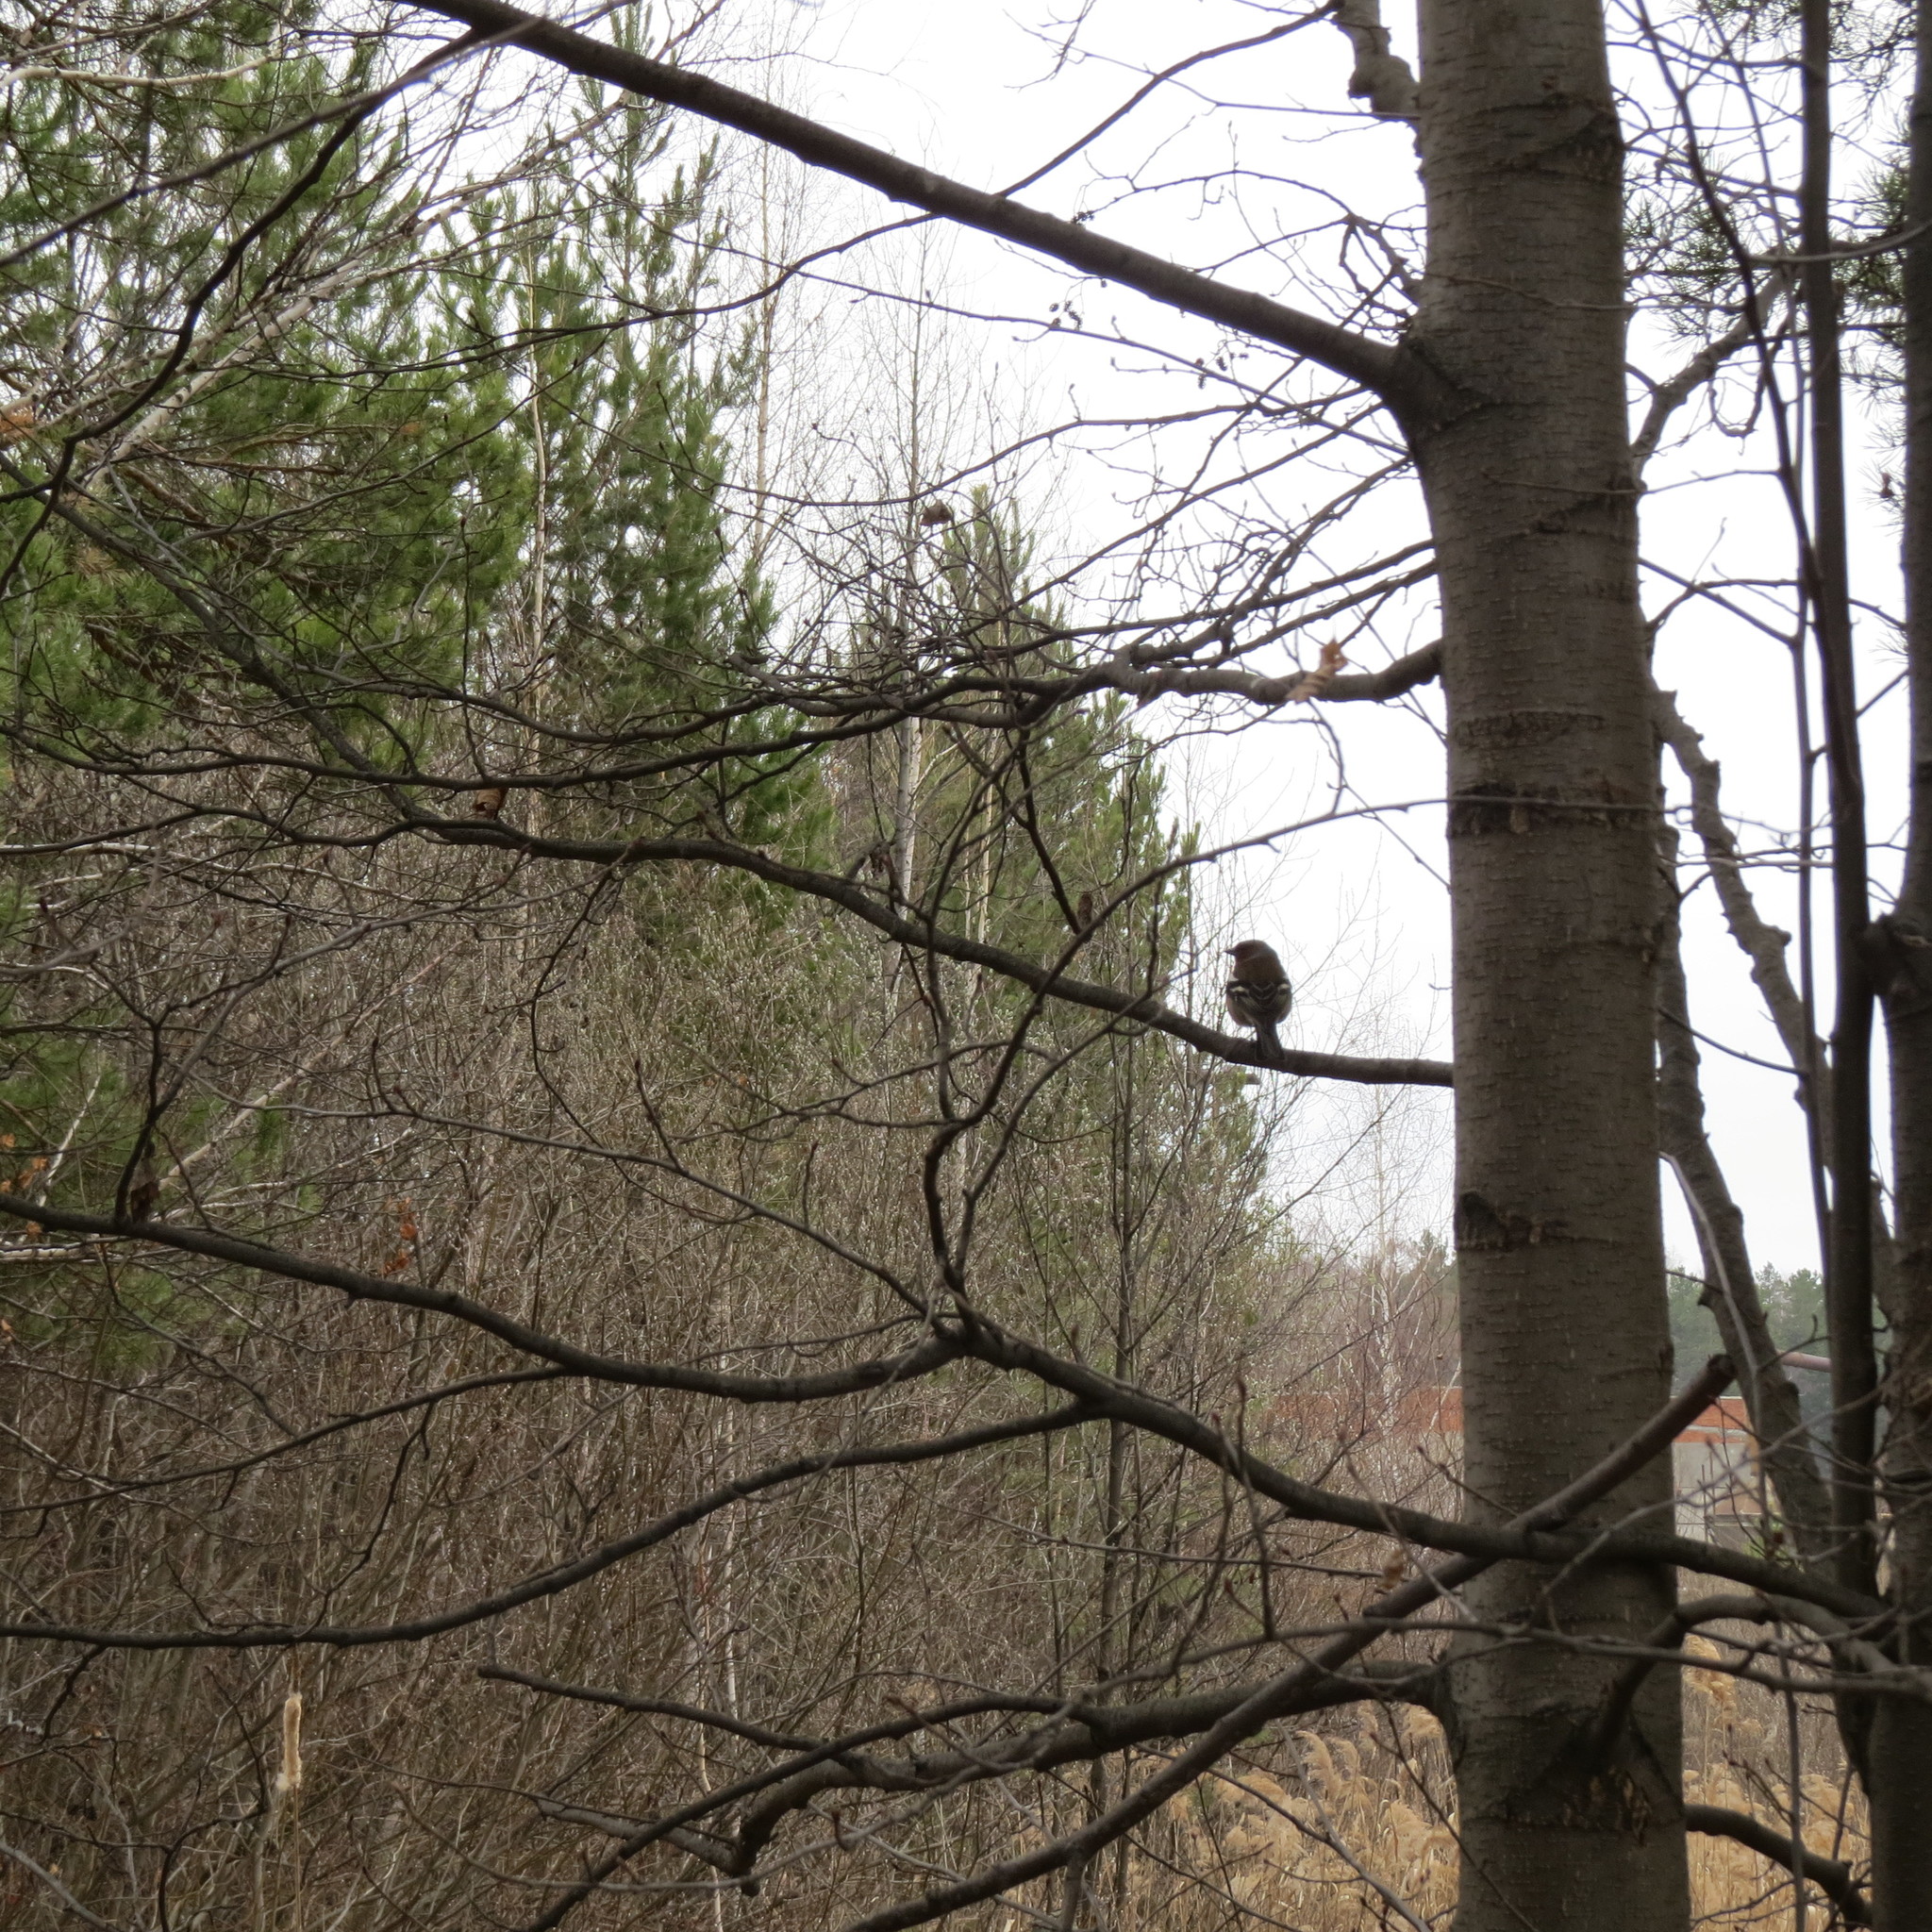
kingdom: Animalia
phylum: Chordata
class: Aves
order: Passeriformes
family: Fringillidae
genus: Fringilla
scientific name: Fringilla coelebs
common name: Common chaffinch
